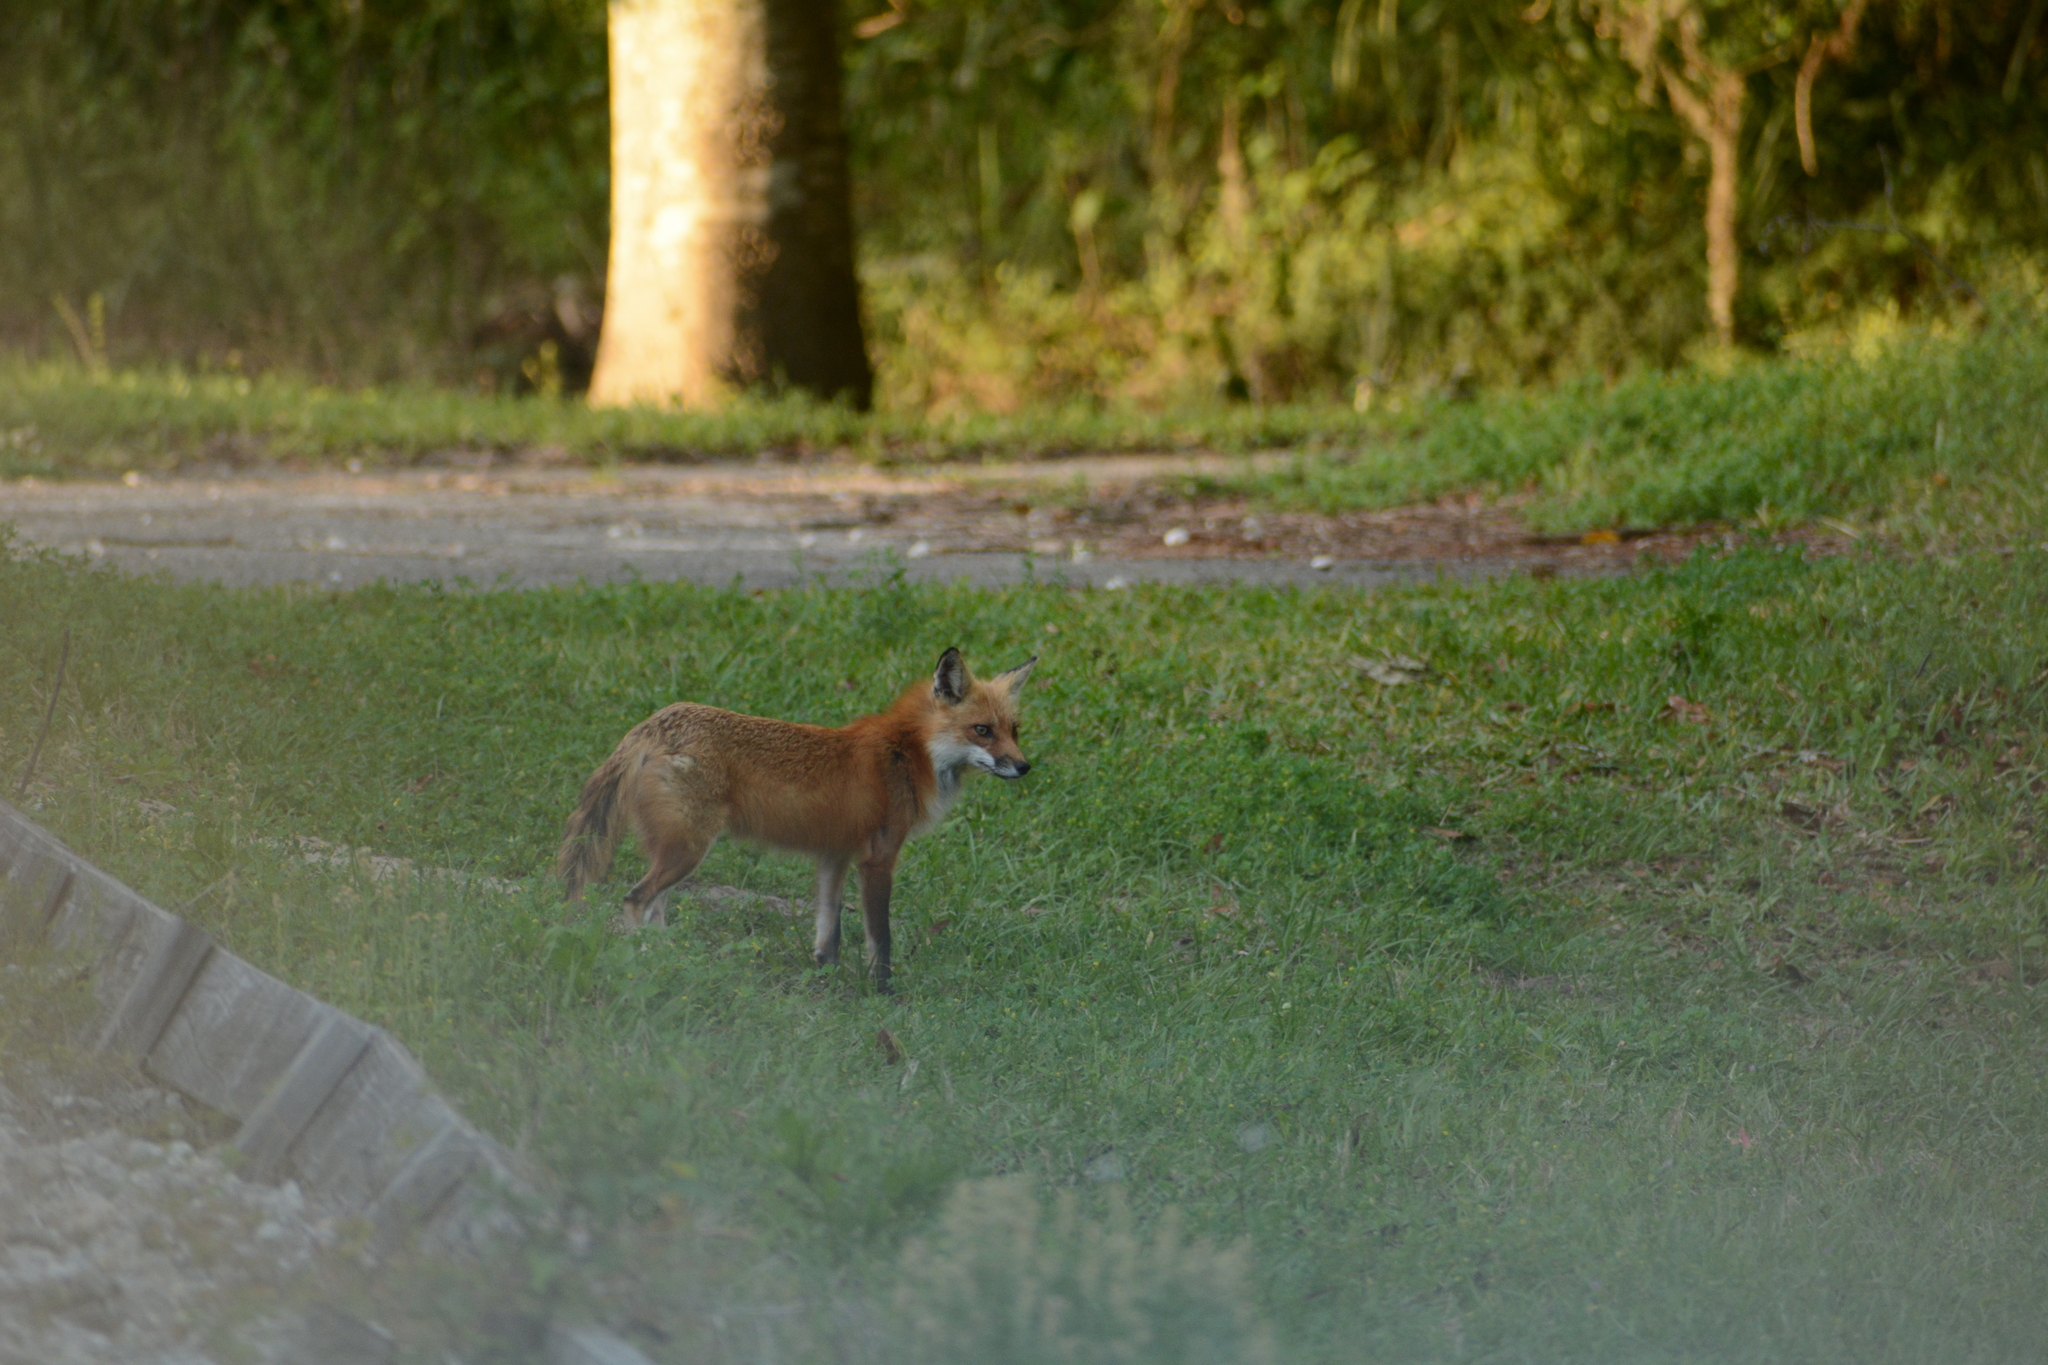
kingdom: Animalia
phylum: Chordata
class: Mammalia
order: Carnivora
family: Canidae
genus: Vulpes
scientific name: Vulpes vulpes
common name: Red fox
